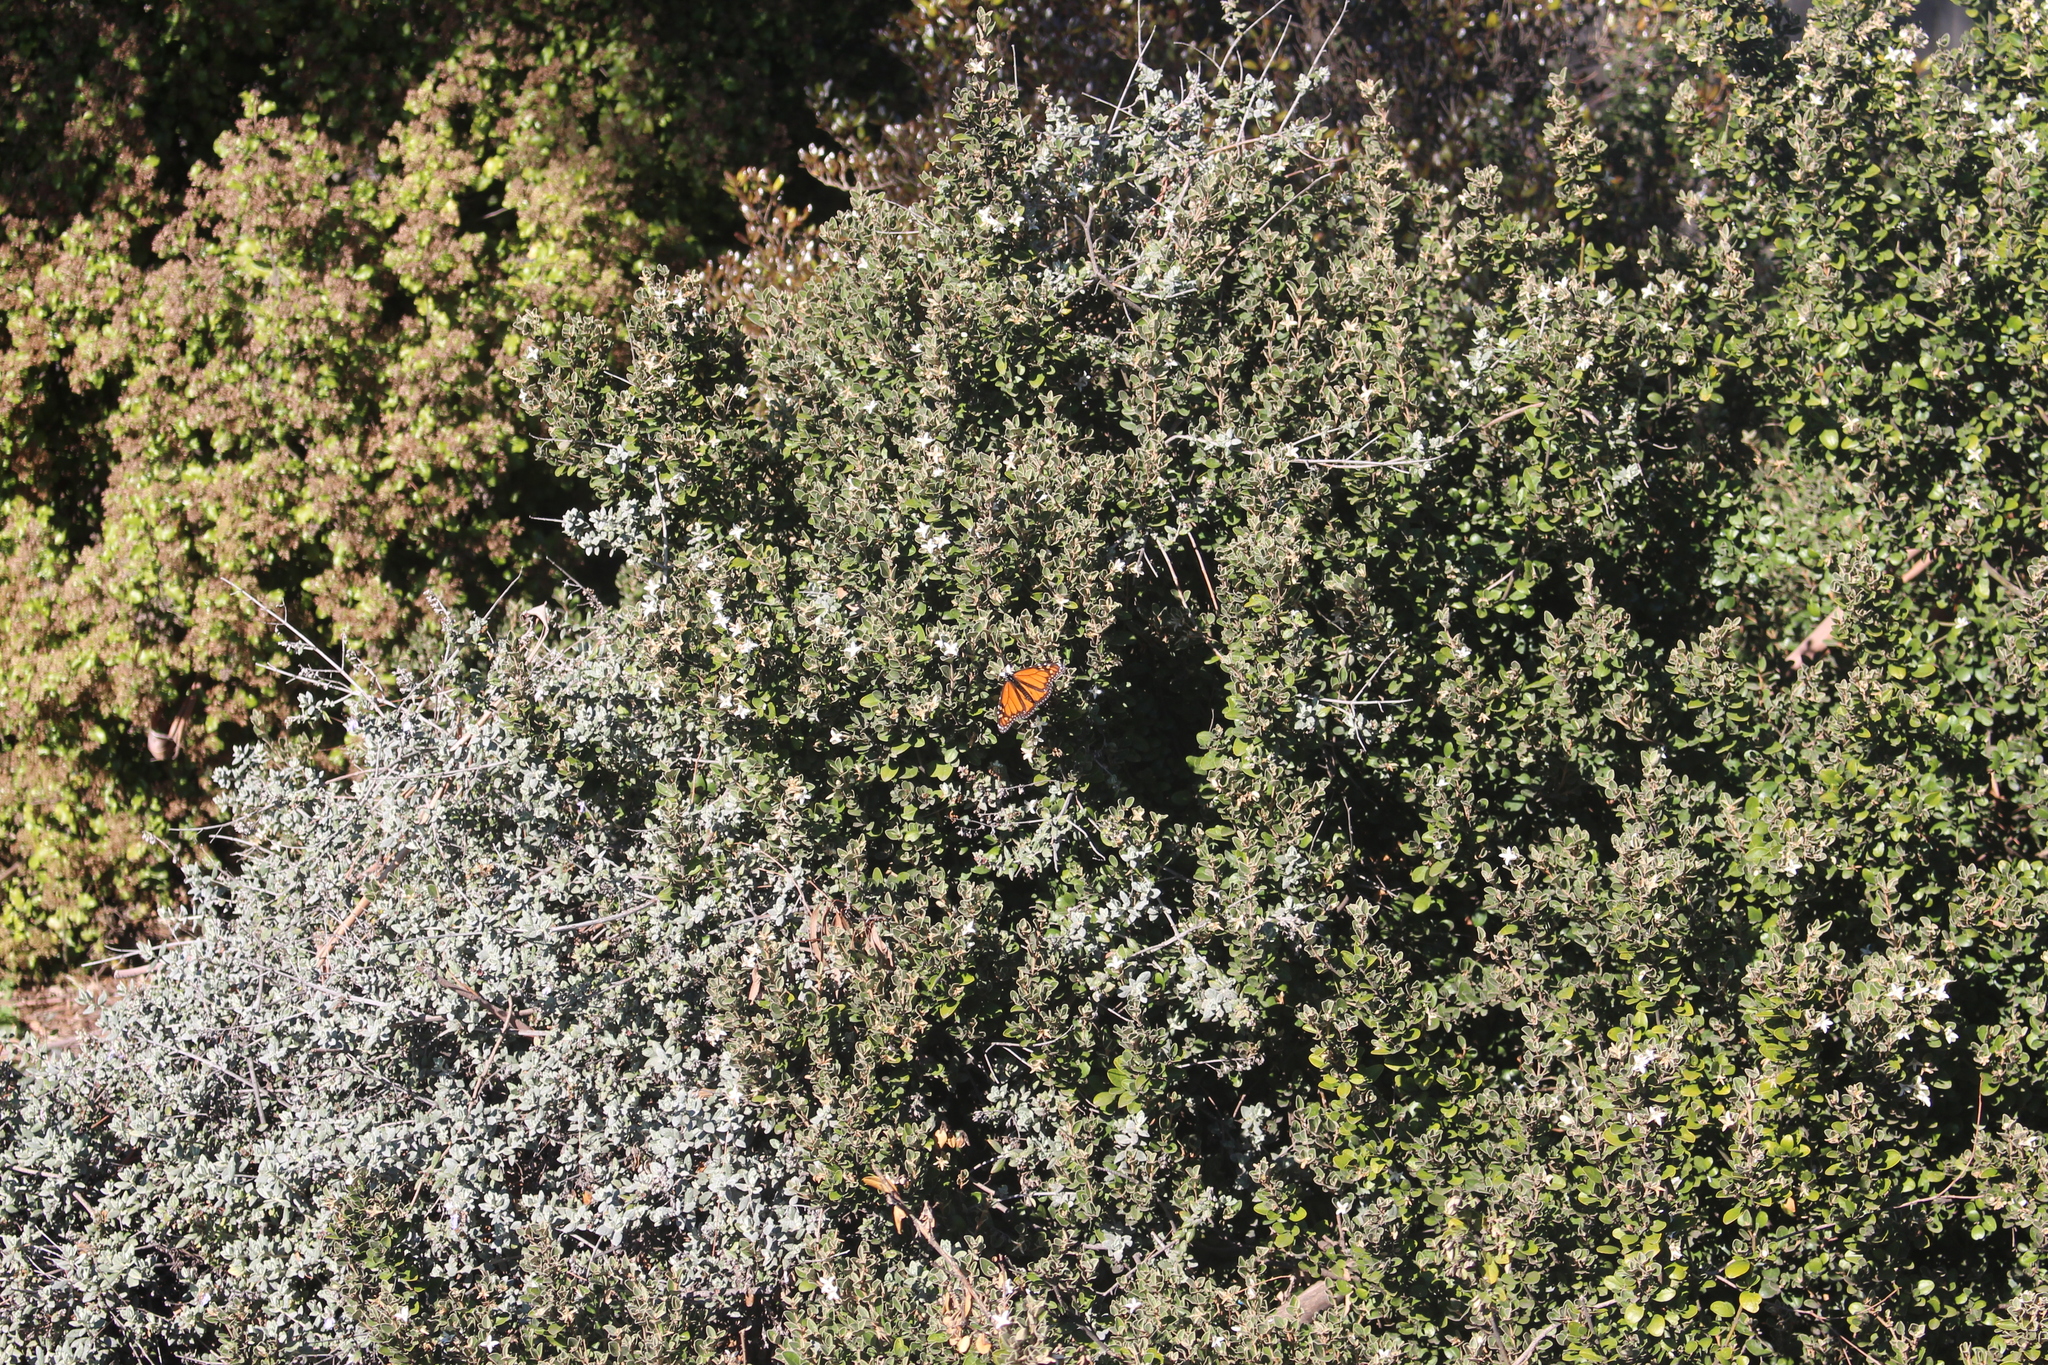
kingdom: Animalia
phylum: Arthropoda
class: Insecta
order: Lepidoptera
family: Nymphalidae
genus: Danaus
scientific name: Danaus plexippus
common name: Monarch
